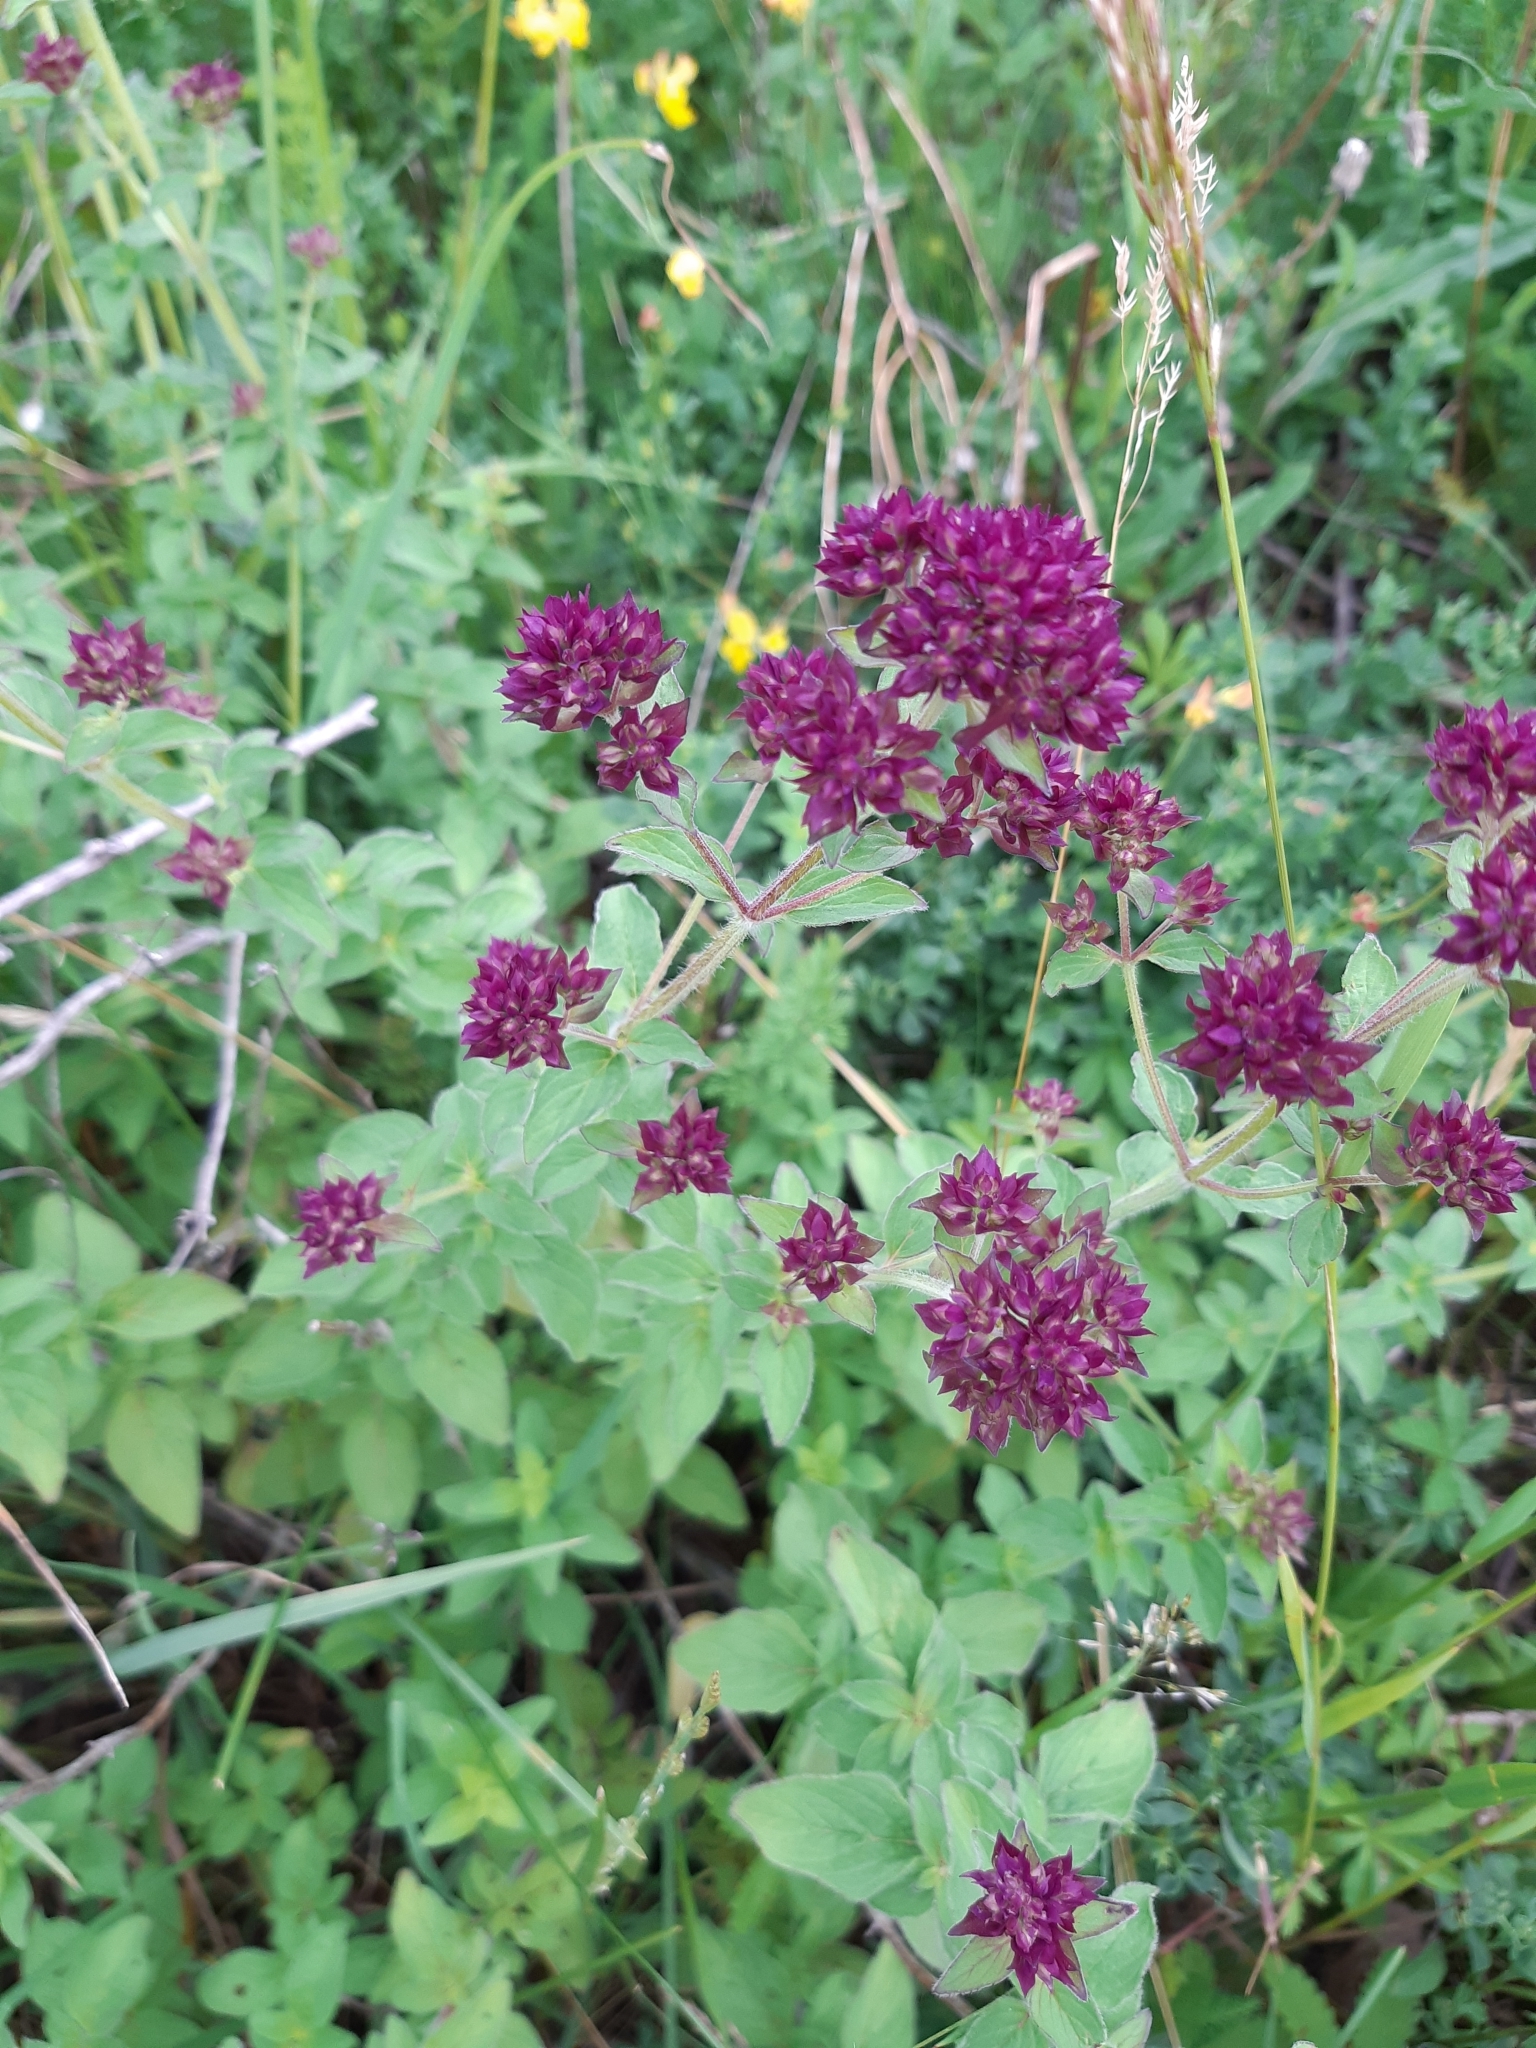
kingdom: Plantae
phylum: Tracheophyta
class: Magnoliopsida
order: Lamiales
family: Lamiaceae
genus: Origanum
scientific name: Origanum vulgare
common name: Wild marjoram
